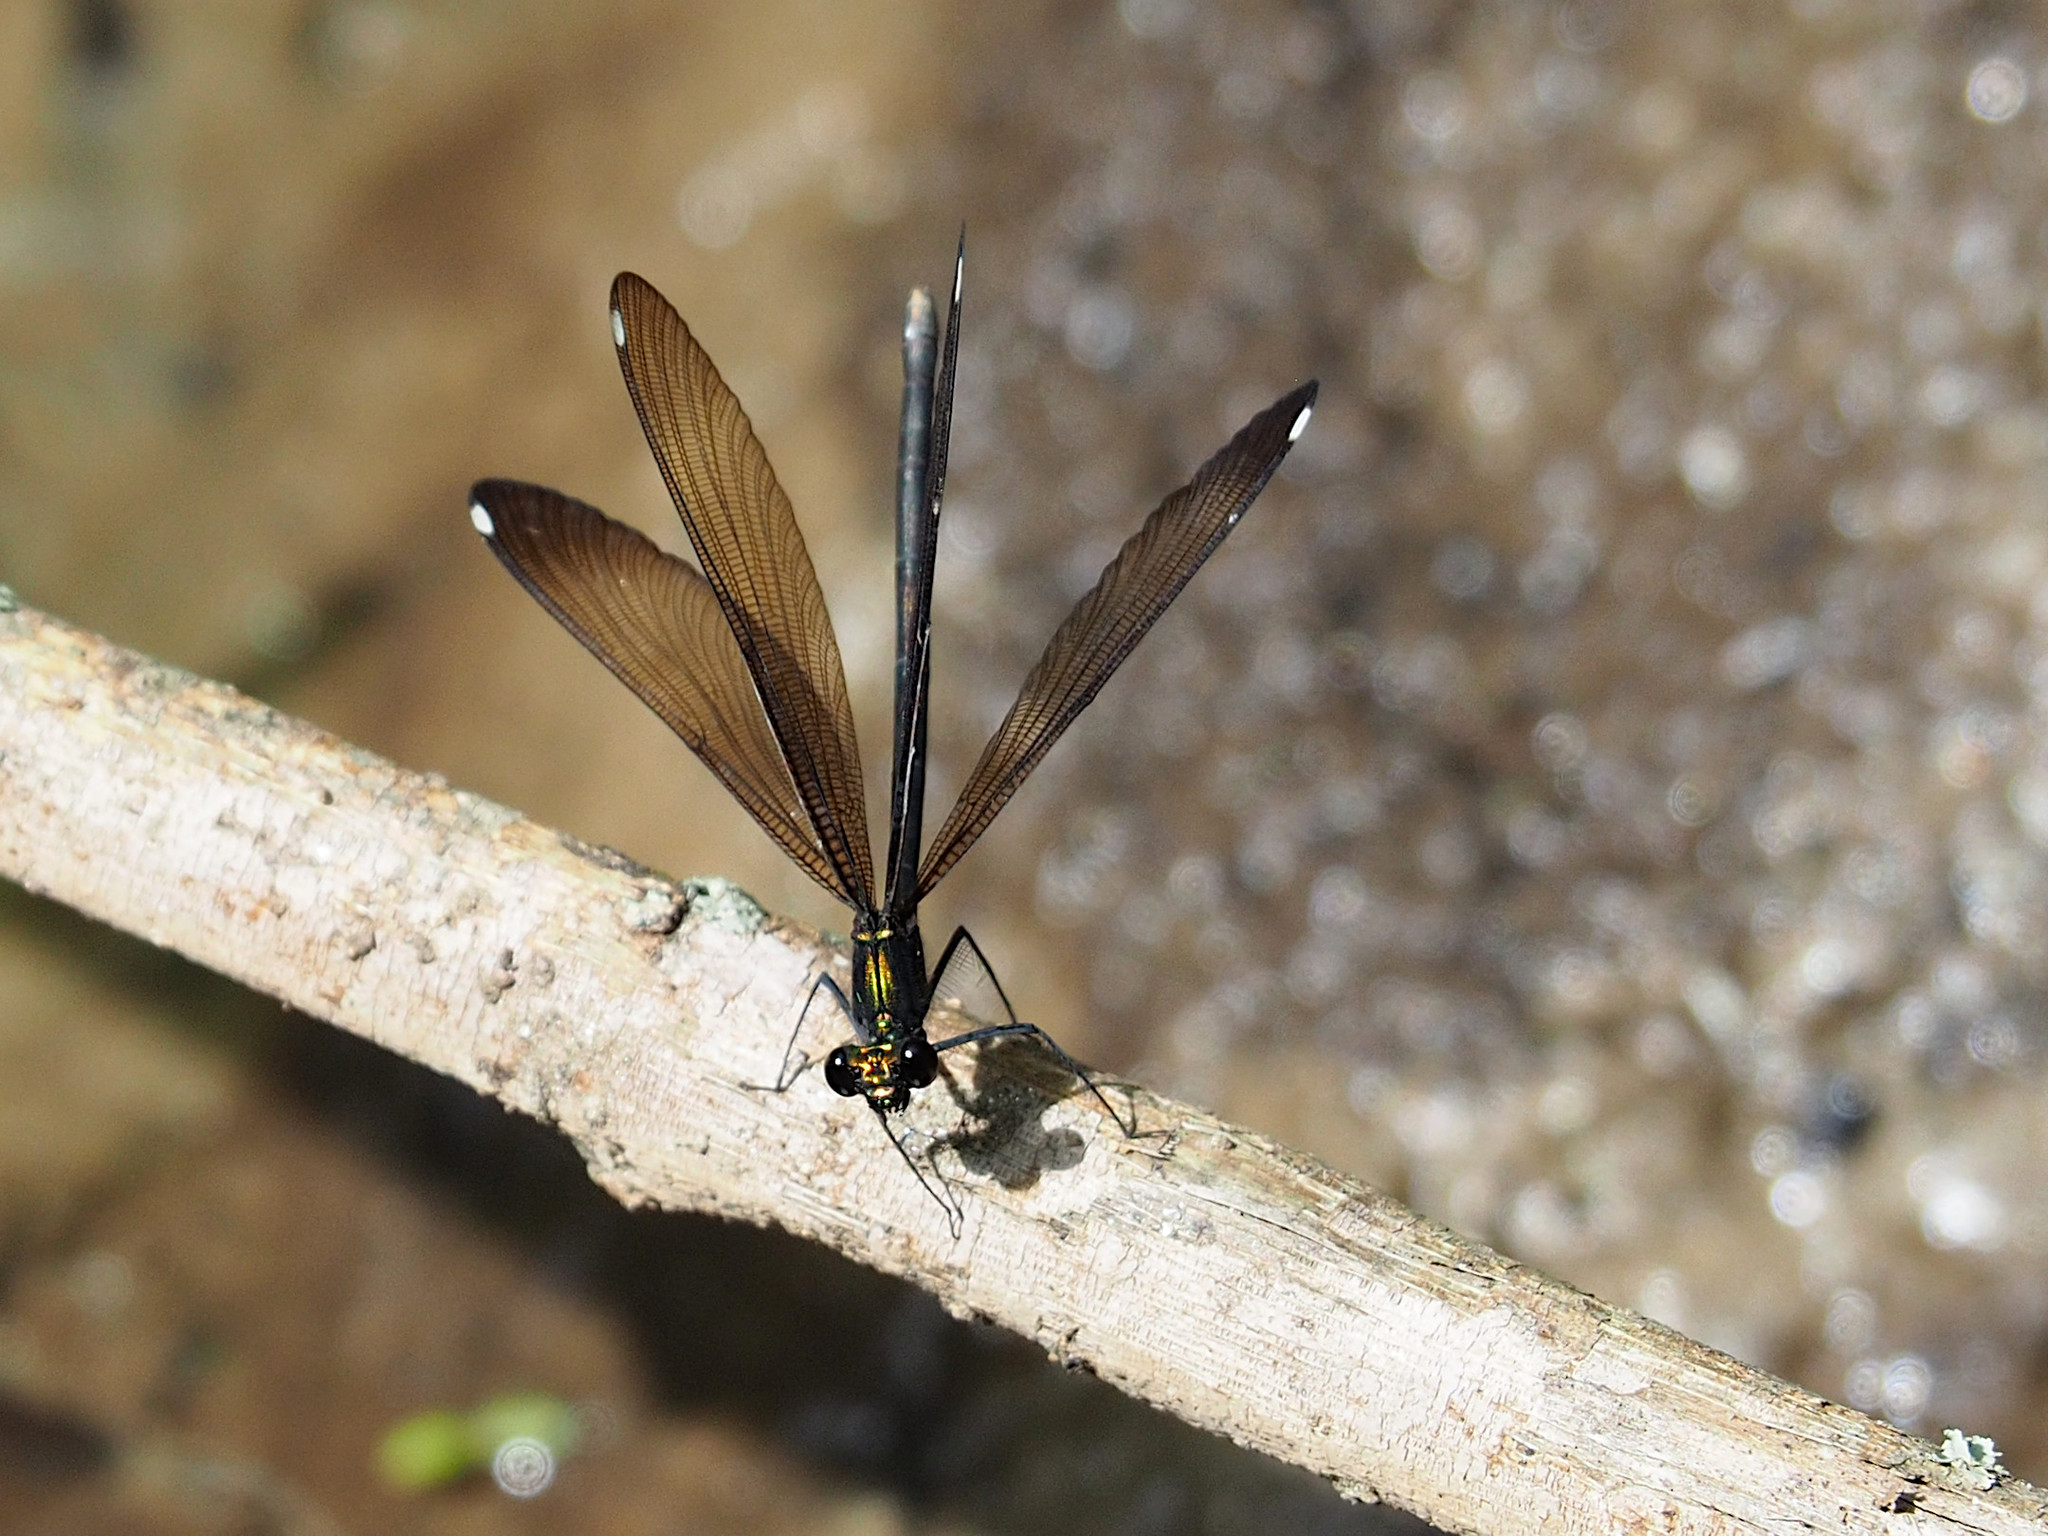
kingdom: Animalia
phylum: Arthropoda
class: Insecta
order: Odonata
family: Calopterygidae
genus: Calopteryx
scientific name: Calopteryx maculata
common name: Ebony jewelwing
